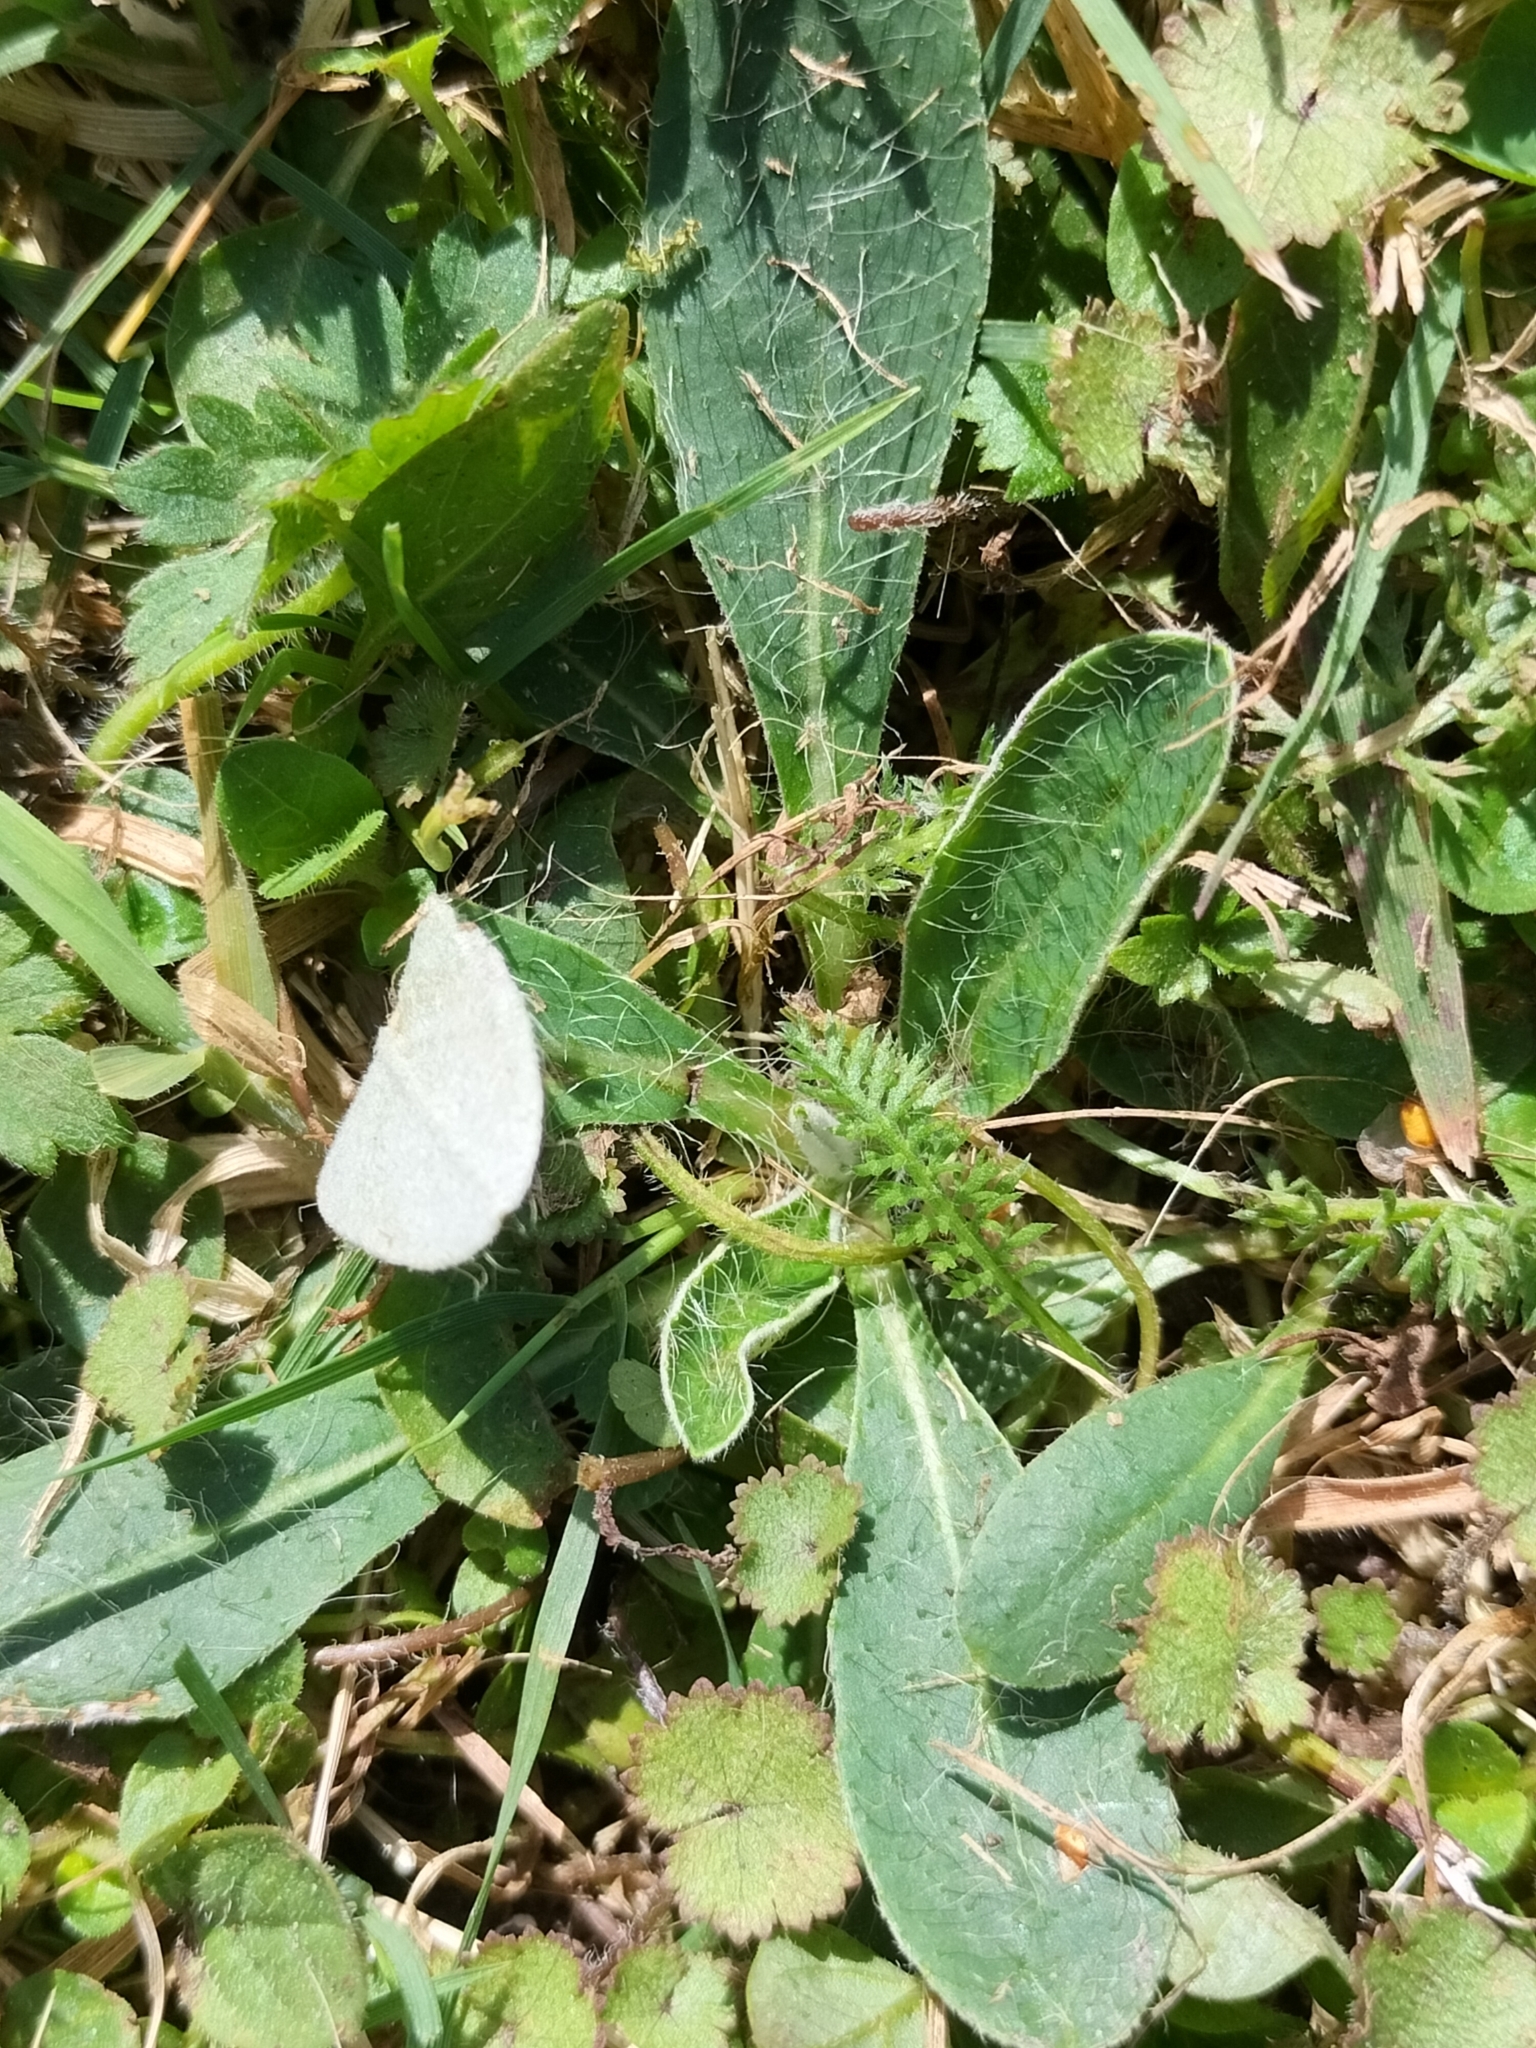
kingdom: Plantae
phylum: Tracheophyta
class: Magnoliopsida
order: Asterales
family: Asteraceae
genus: Pilosella
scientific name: Pilosella officinarum
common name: Mouse-ear hawkweed
